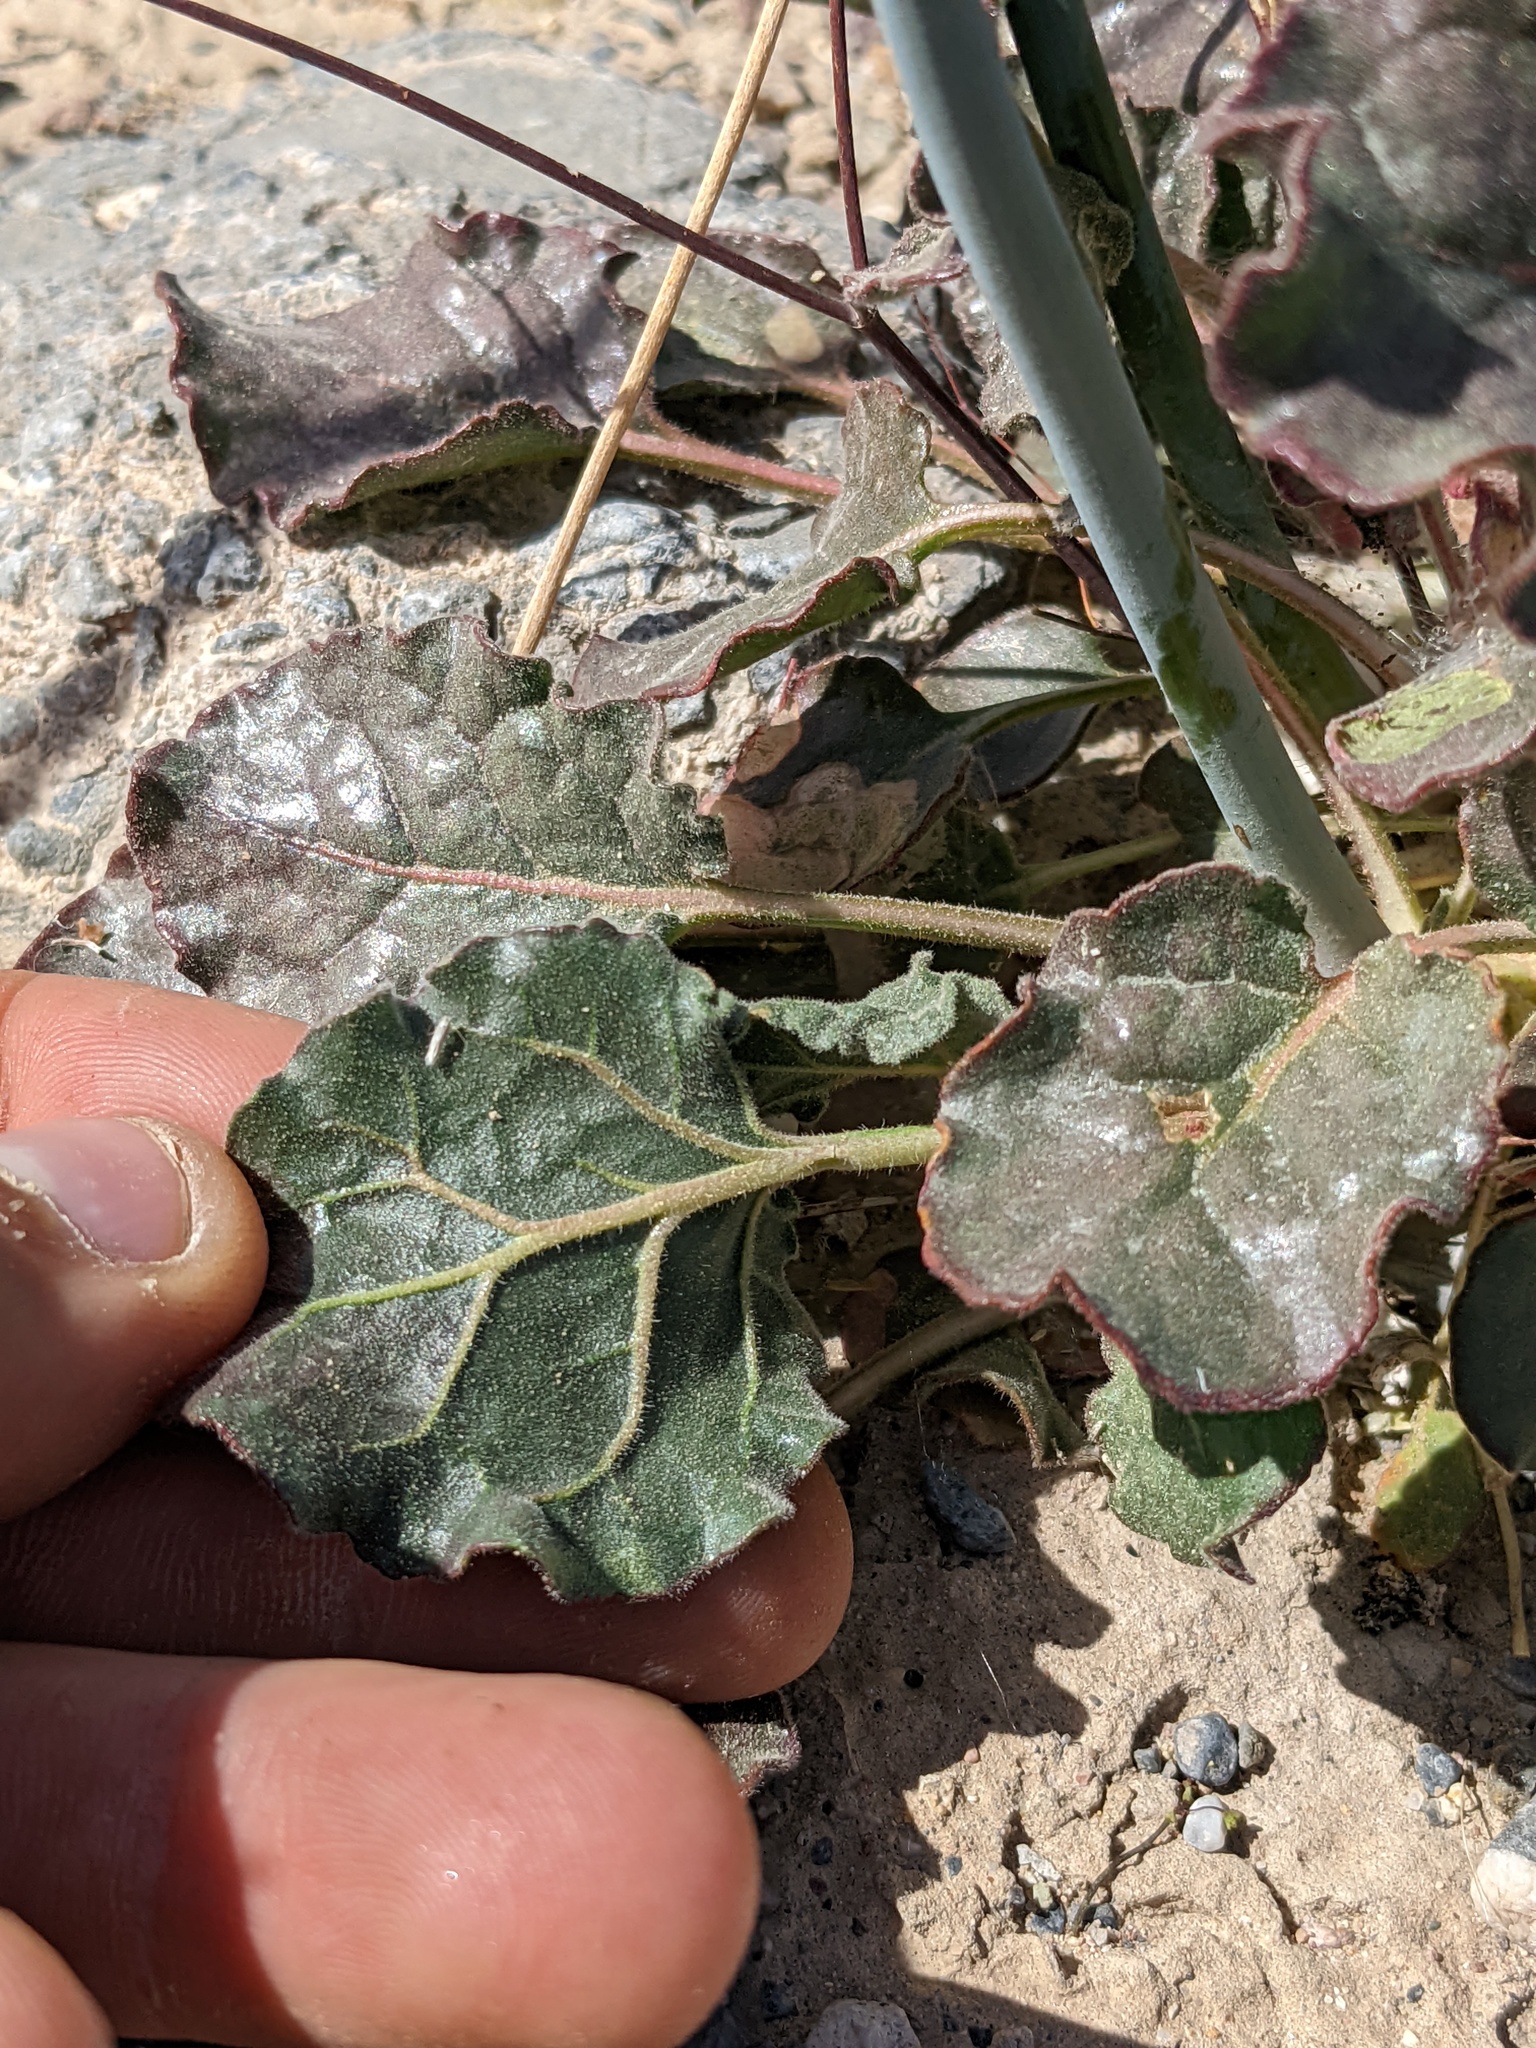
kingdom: Plantae
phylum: Tracheophyta
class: Magnoliopsida
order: Caryophyllales
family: Polygonaceae
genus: Eriogonum
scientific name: Eriogonum inflatum
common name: Desert trumpet
